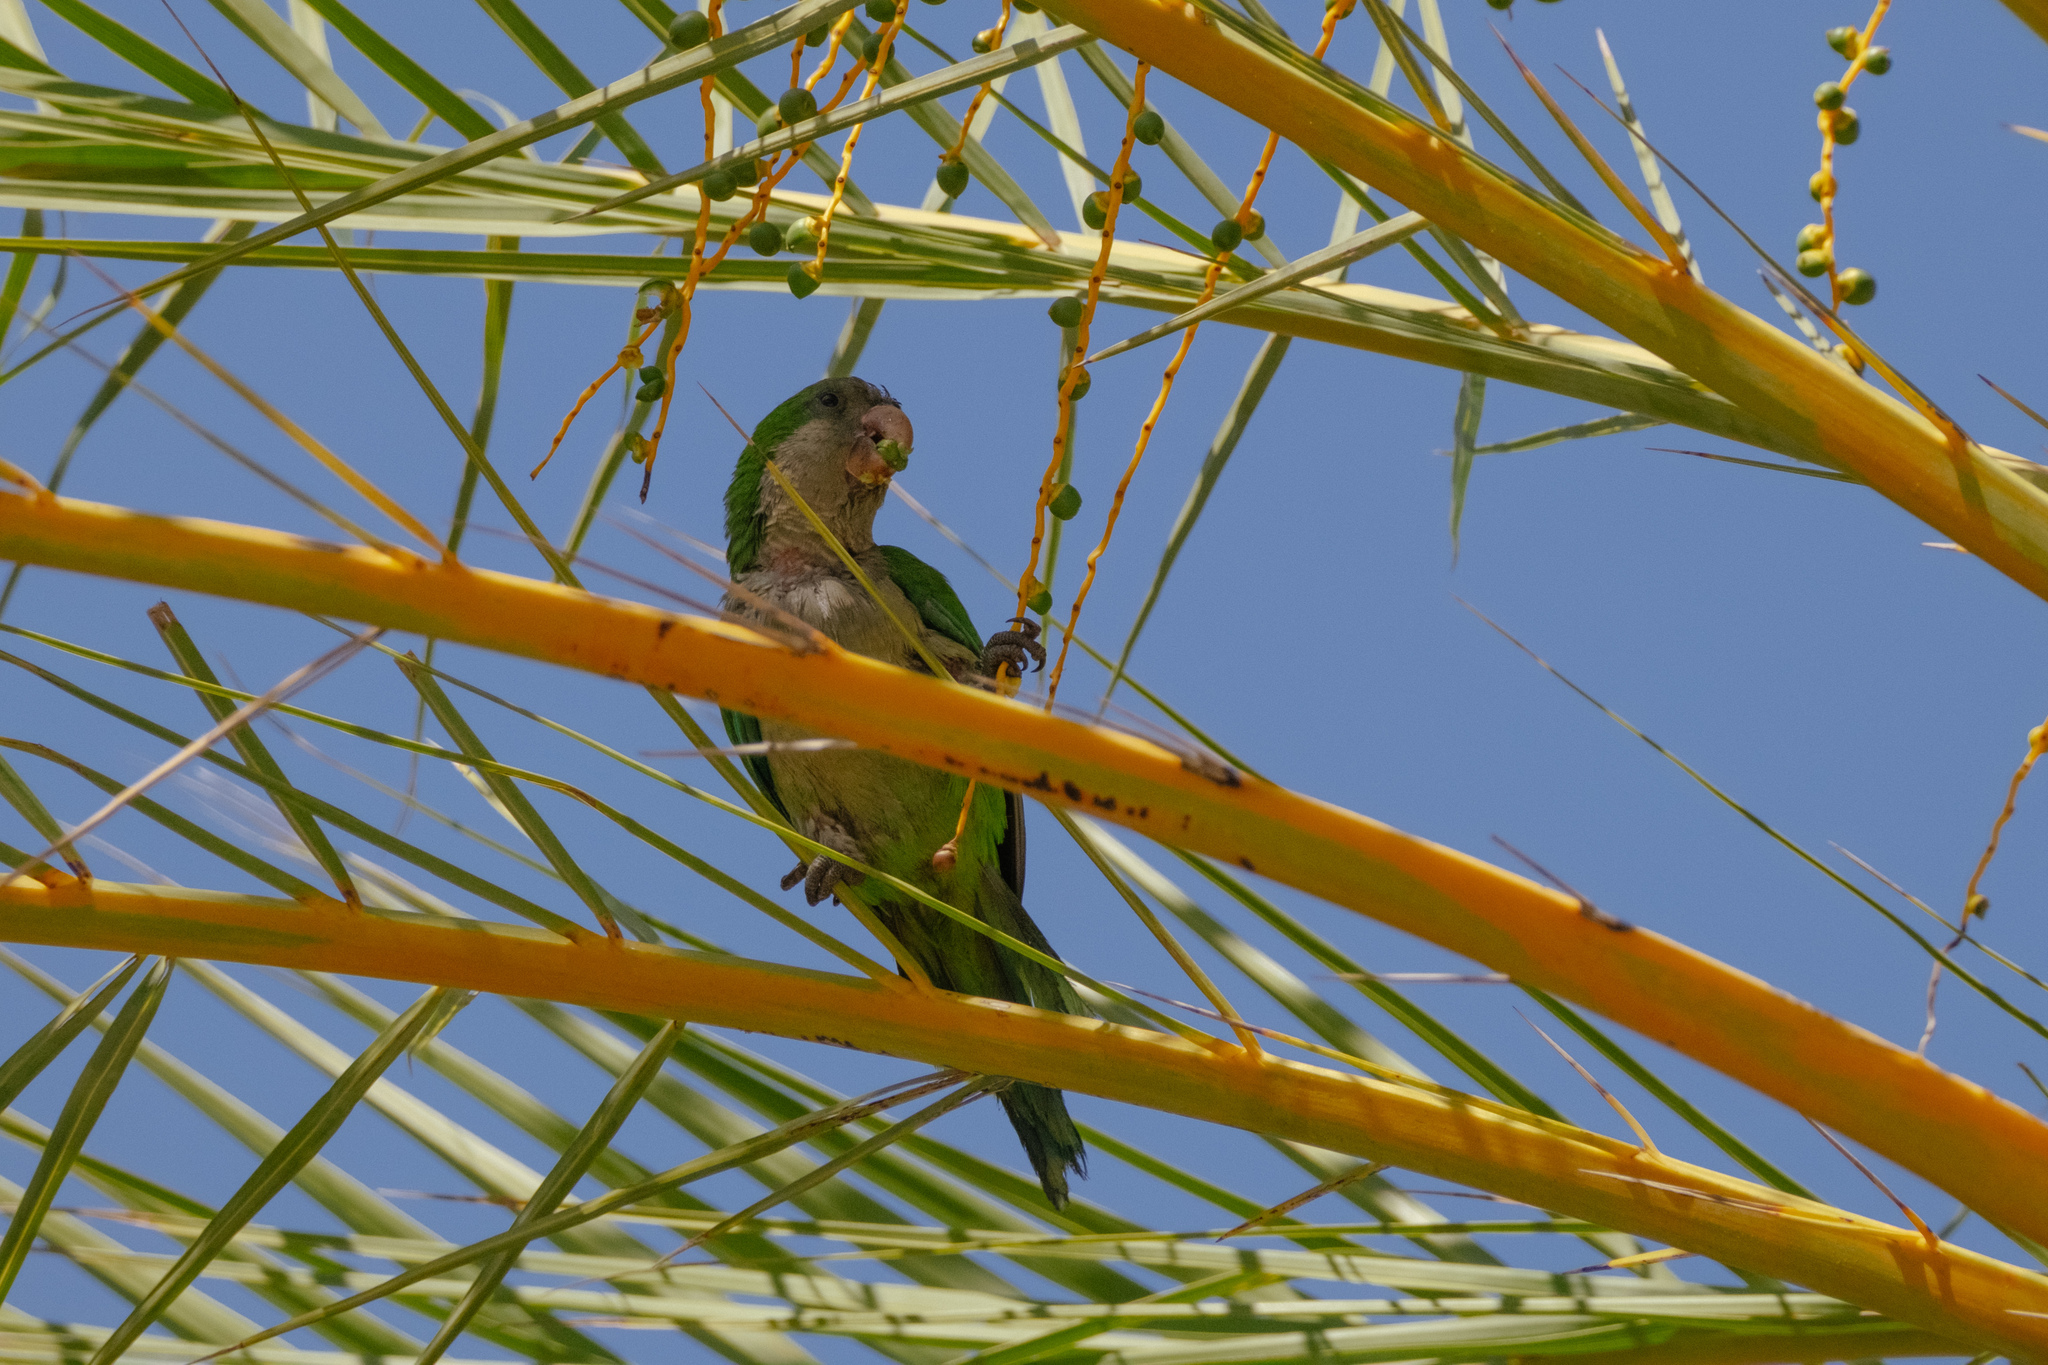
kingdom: Animalia
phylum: Chordata
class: Aves
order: Psittaciformes
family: Psittacidae
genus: Myiopsitta
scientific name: Myiopsitta monachus
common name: Monk parakeet
